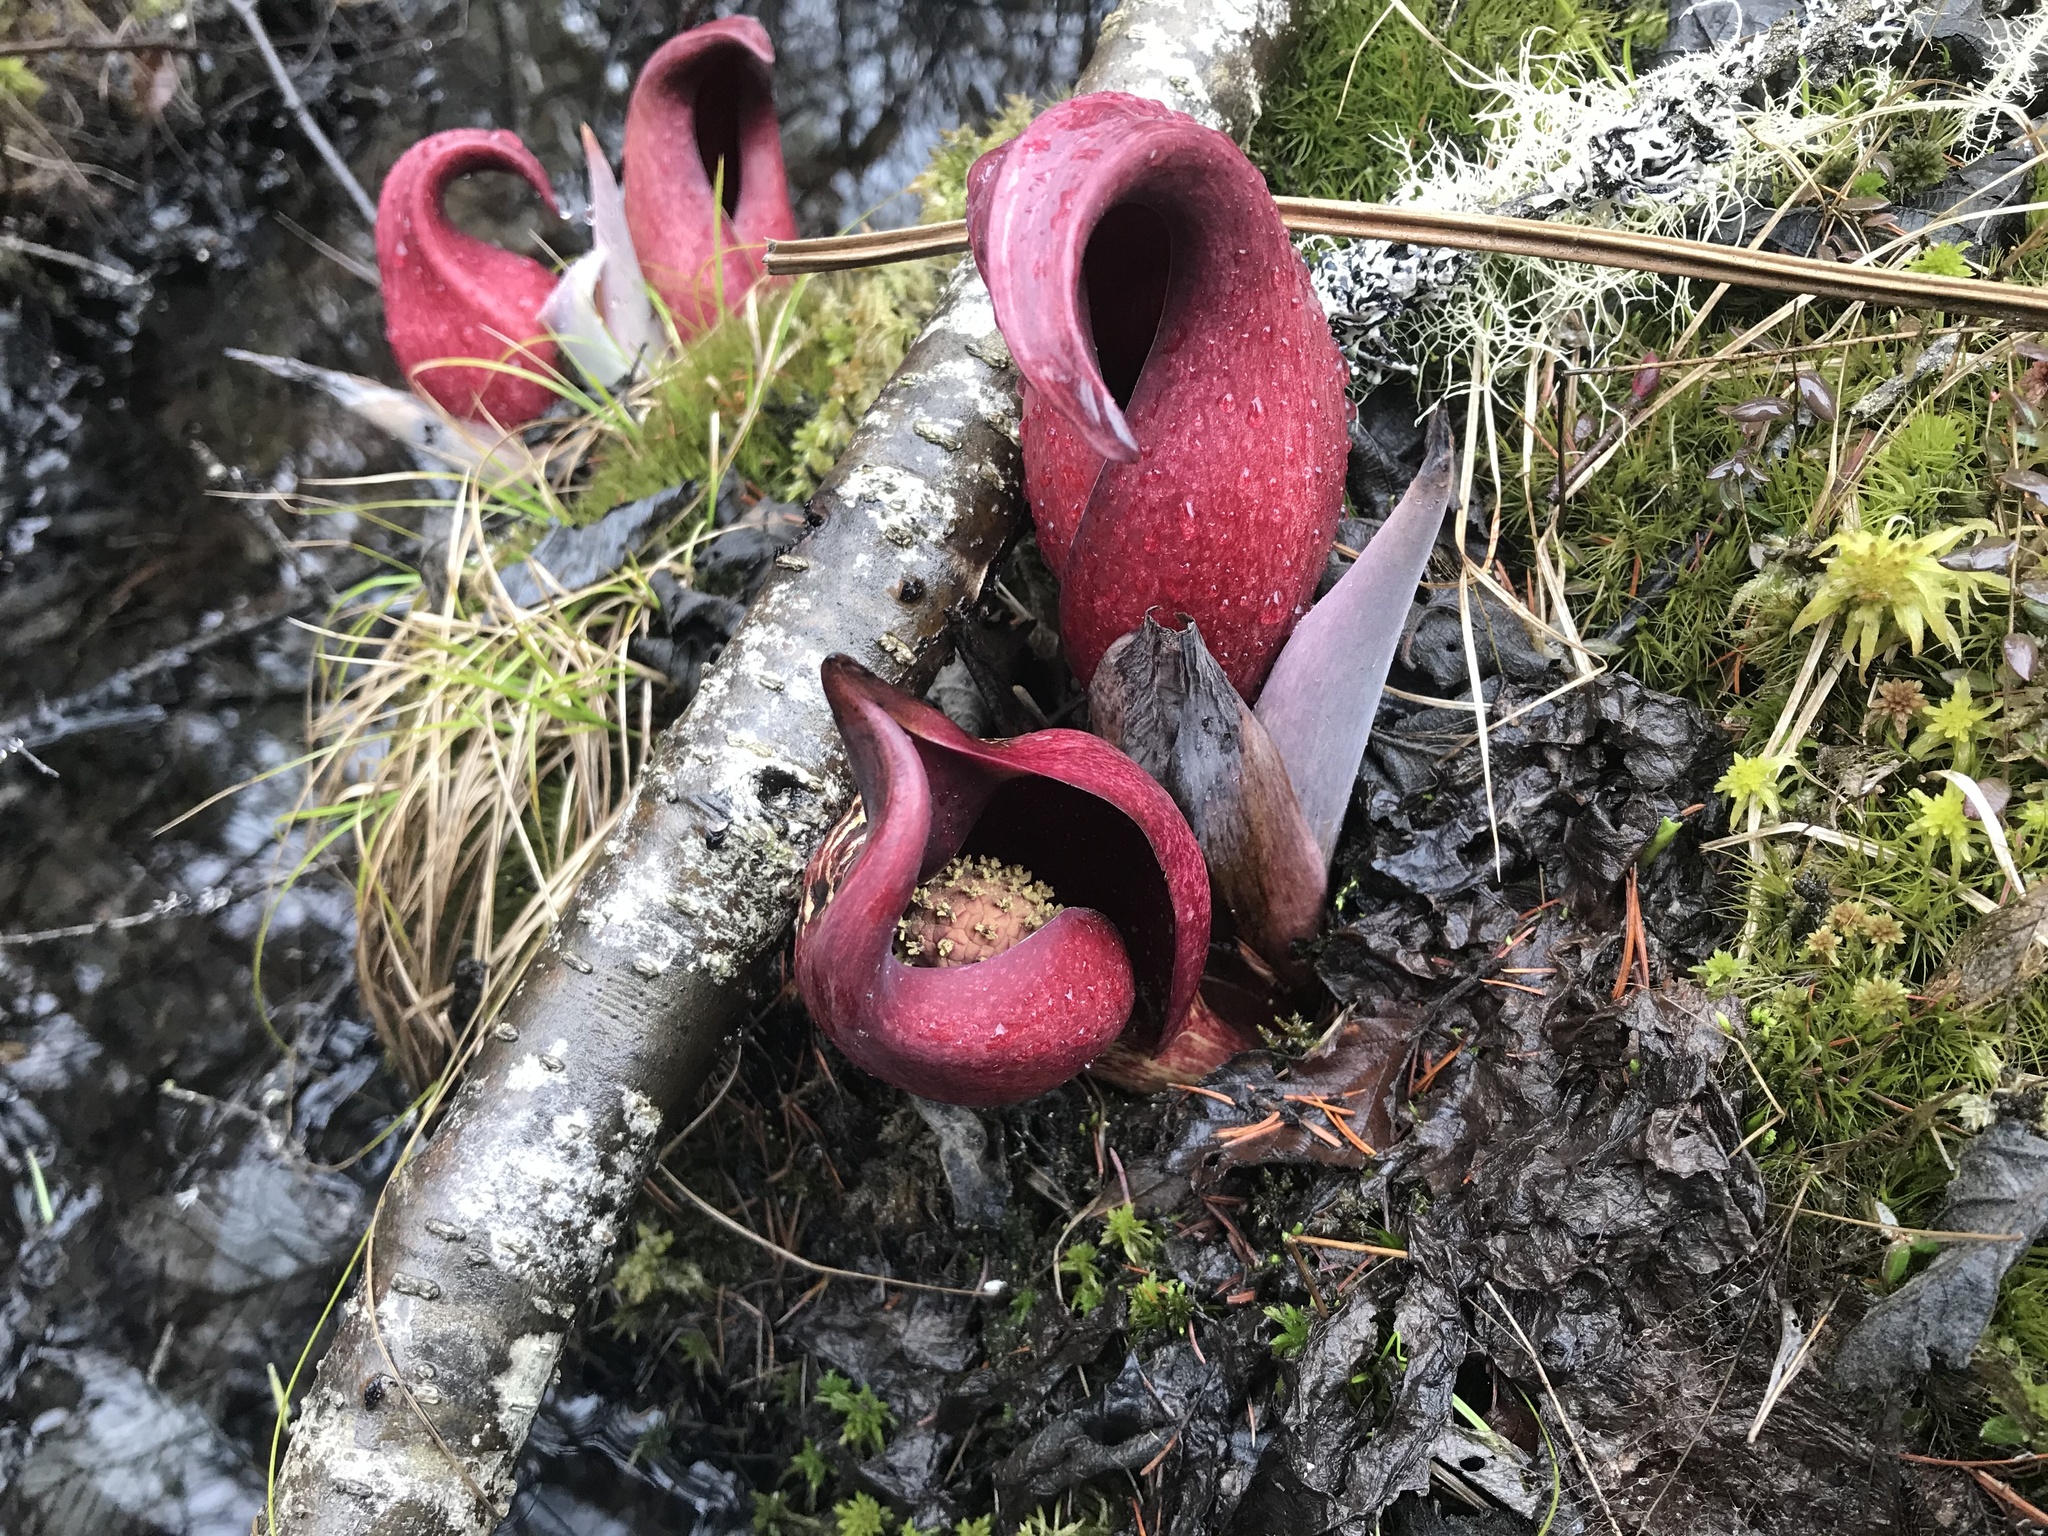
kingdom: Plantae
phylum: Tracheophyta
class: Liliopsida
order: Alismatales
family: Araceae
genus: Symplocarpus
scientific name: Symplocarpus foetidus
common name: Eastern skunk cabbage
